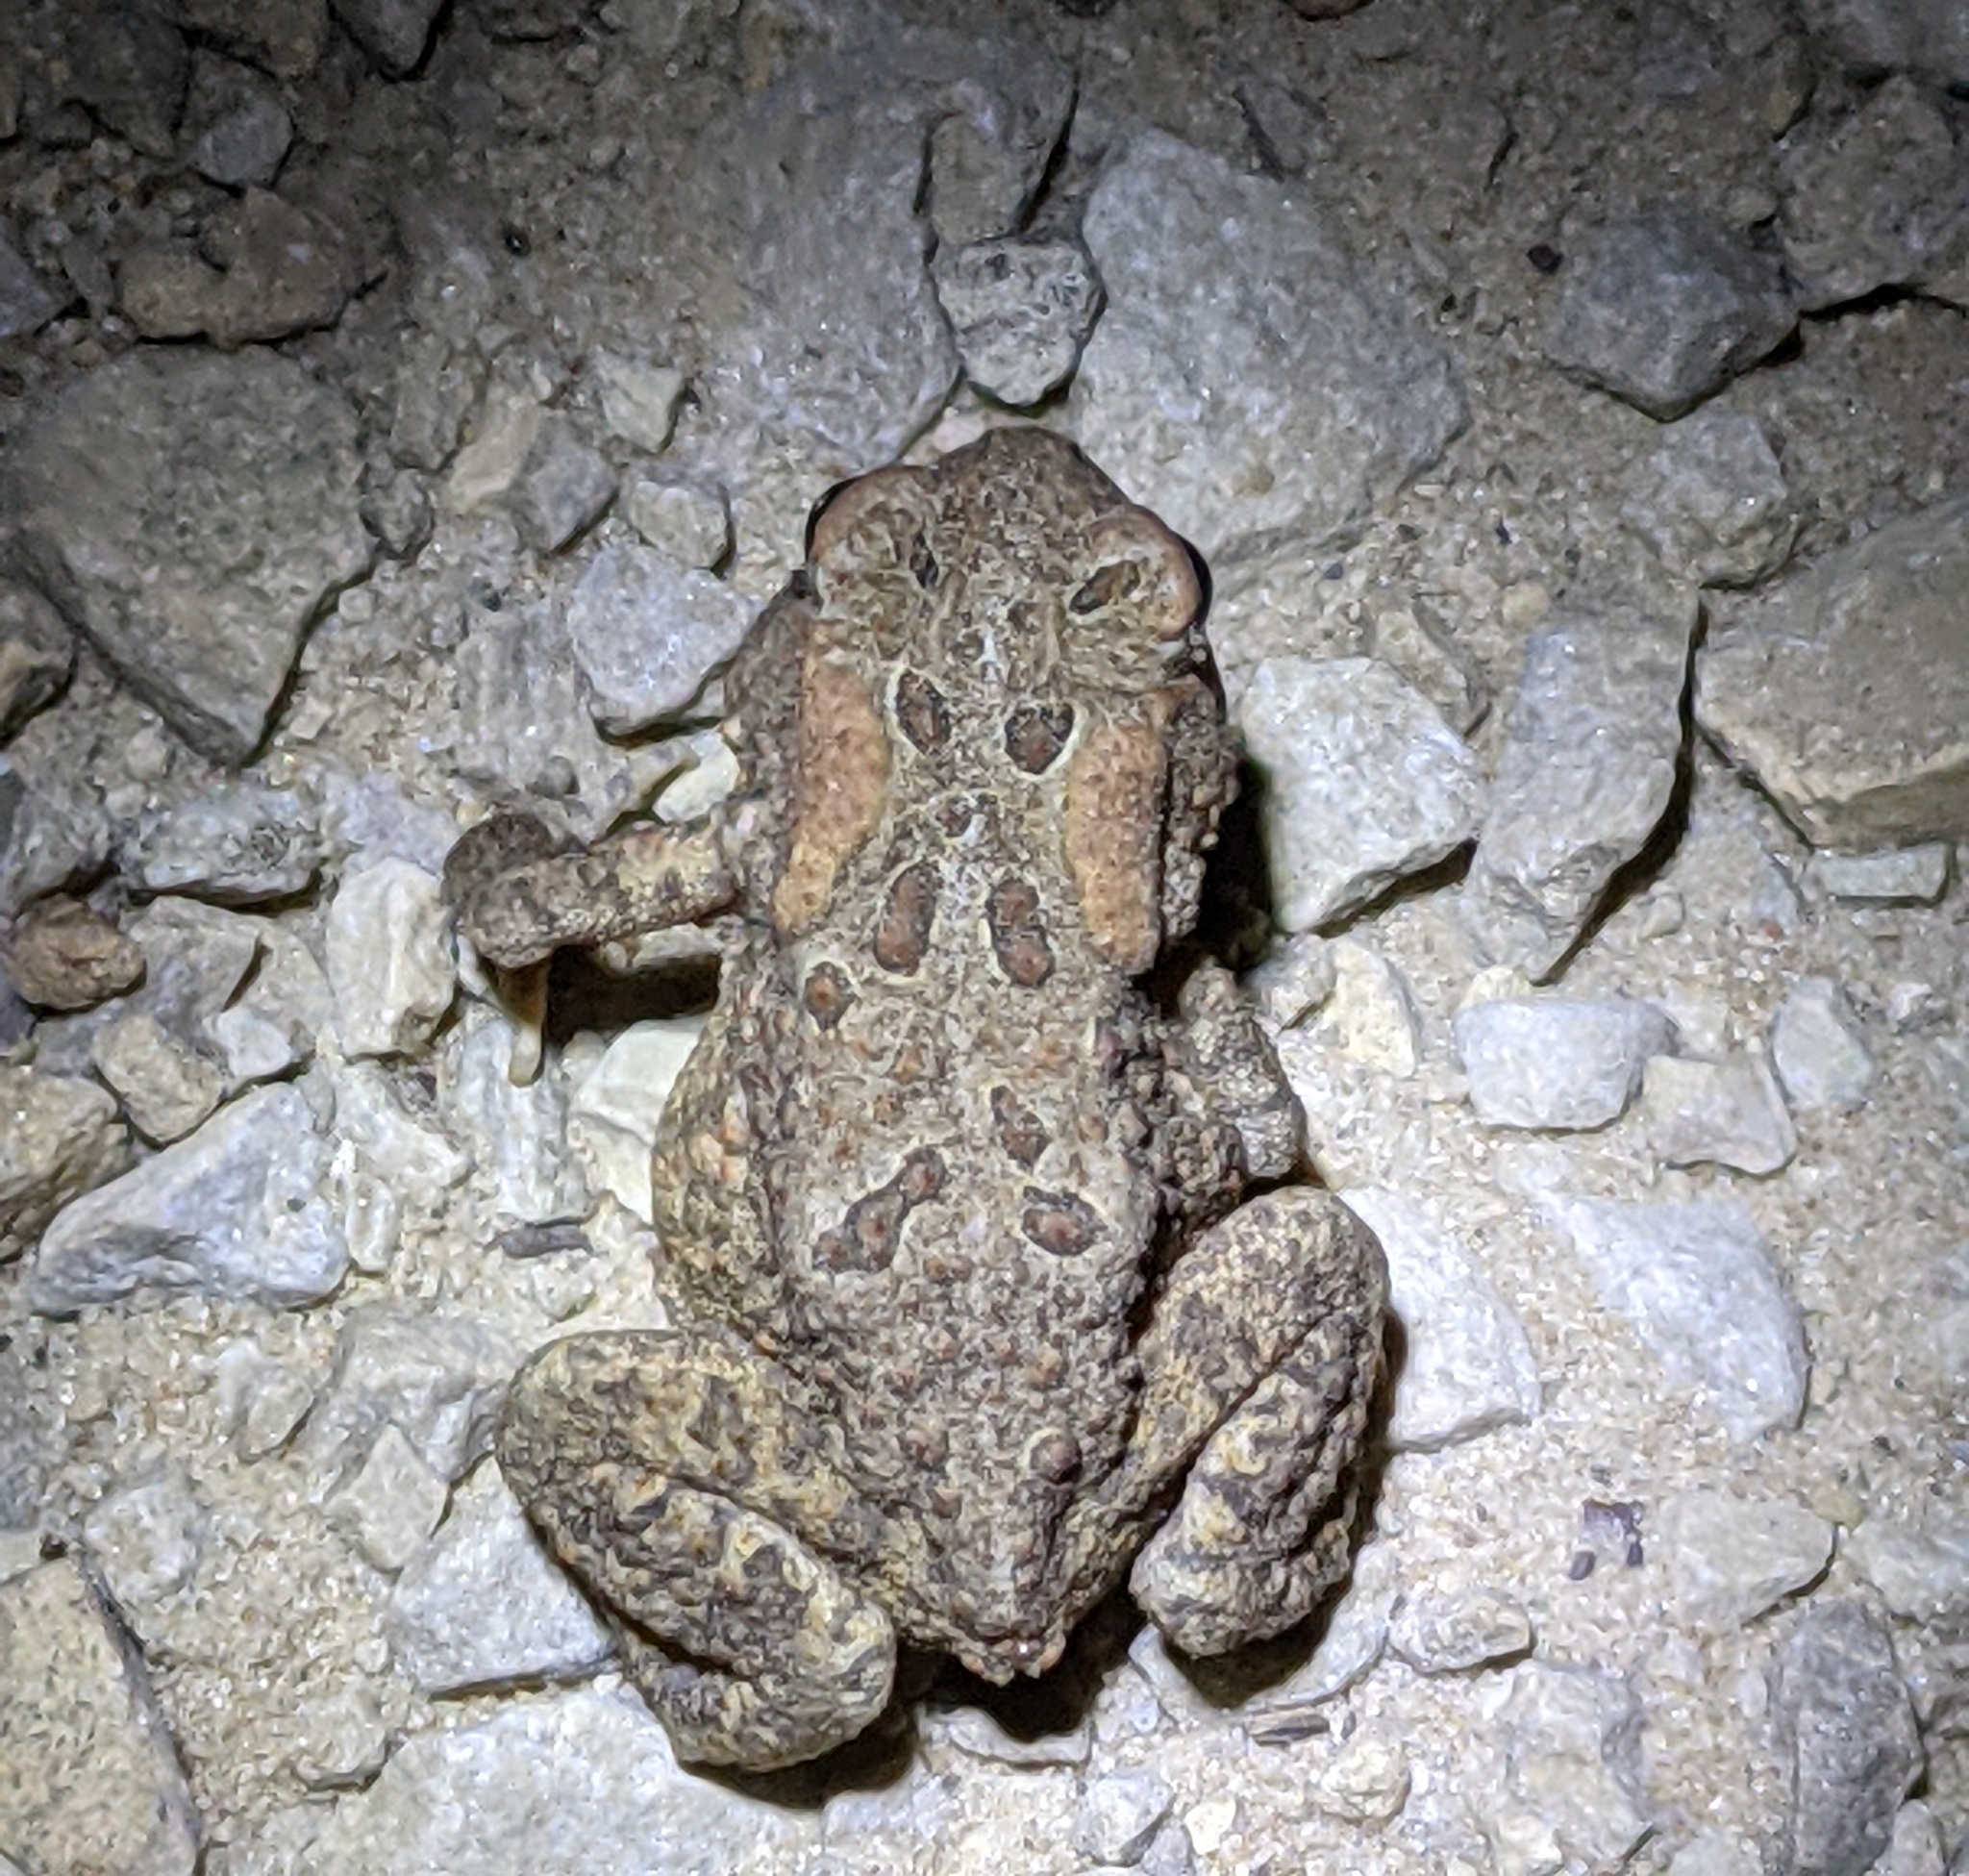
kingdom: Animalia
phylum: Chordata
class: Amphibia
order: Anura
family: Bufonidae
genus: Anaxyrus
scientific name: Anaxyrus americanus
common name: American toad
